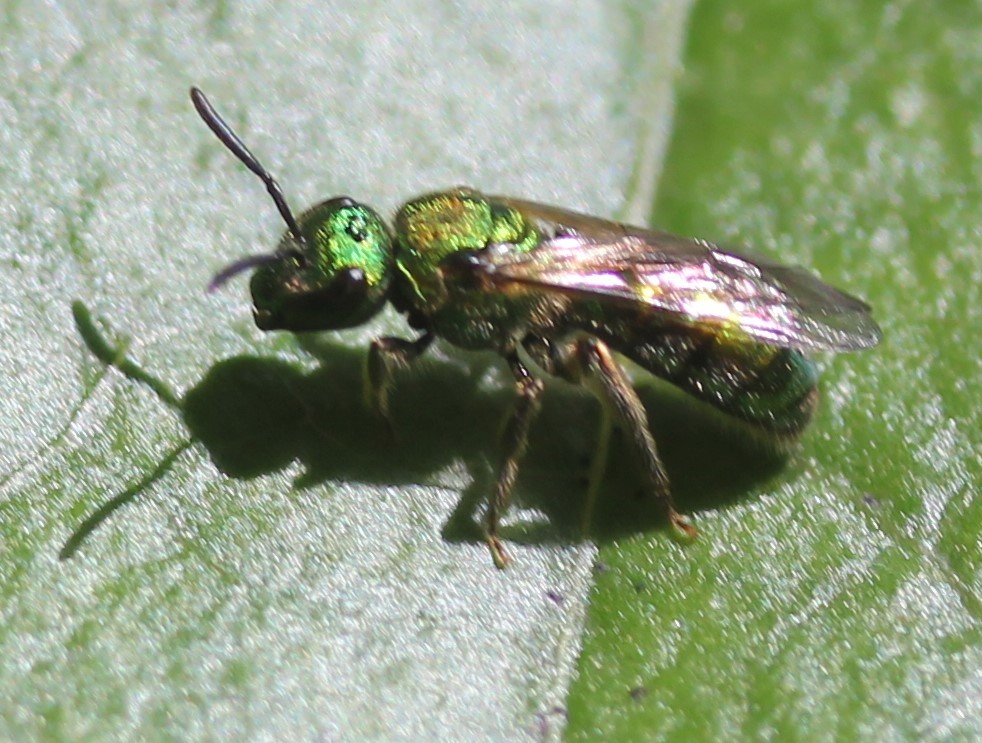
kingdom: Animalia
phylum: Arthropoda
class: Insecta
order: Hymenoptera
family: Halictidae
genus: Augochlora
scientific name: Augochlora pura
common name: Pure green sweat bee
